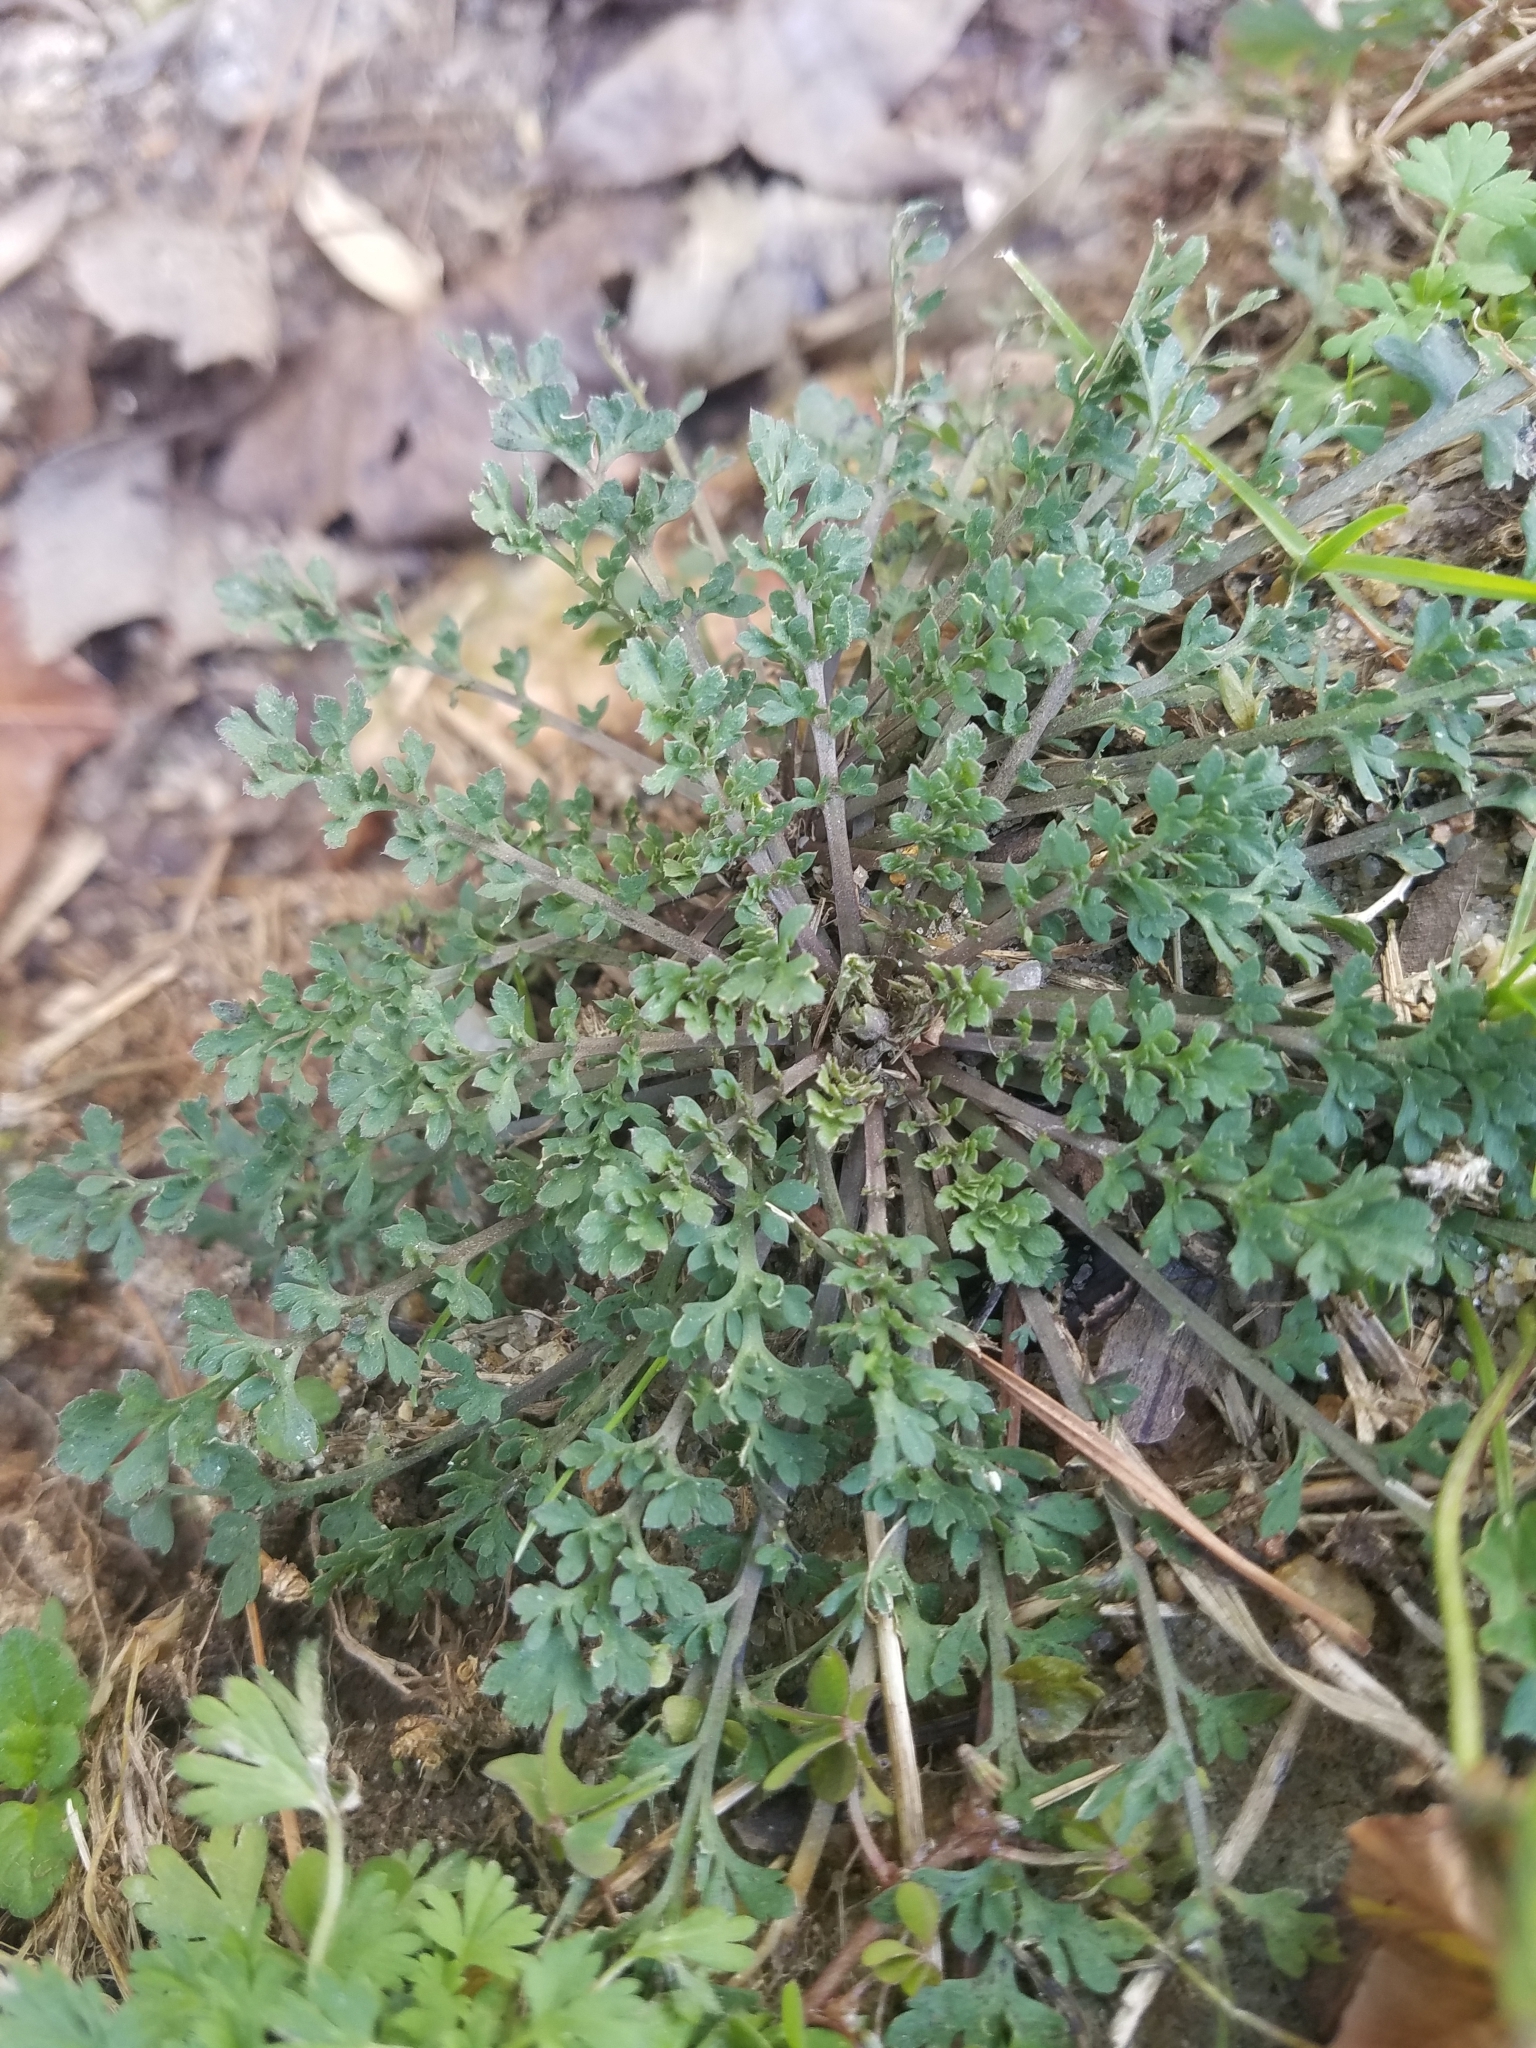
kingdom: Plantae
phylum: Tracheophyta
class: Magnoliopsida
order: Brassicales
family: Brassicaceae
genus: Lepidium
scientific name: Lepidium didymum
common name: Lesser swinecress
